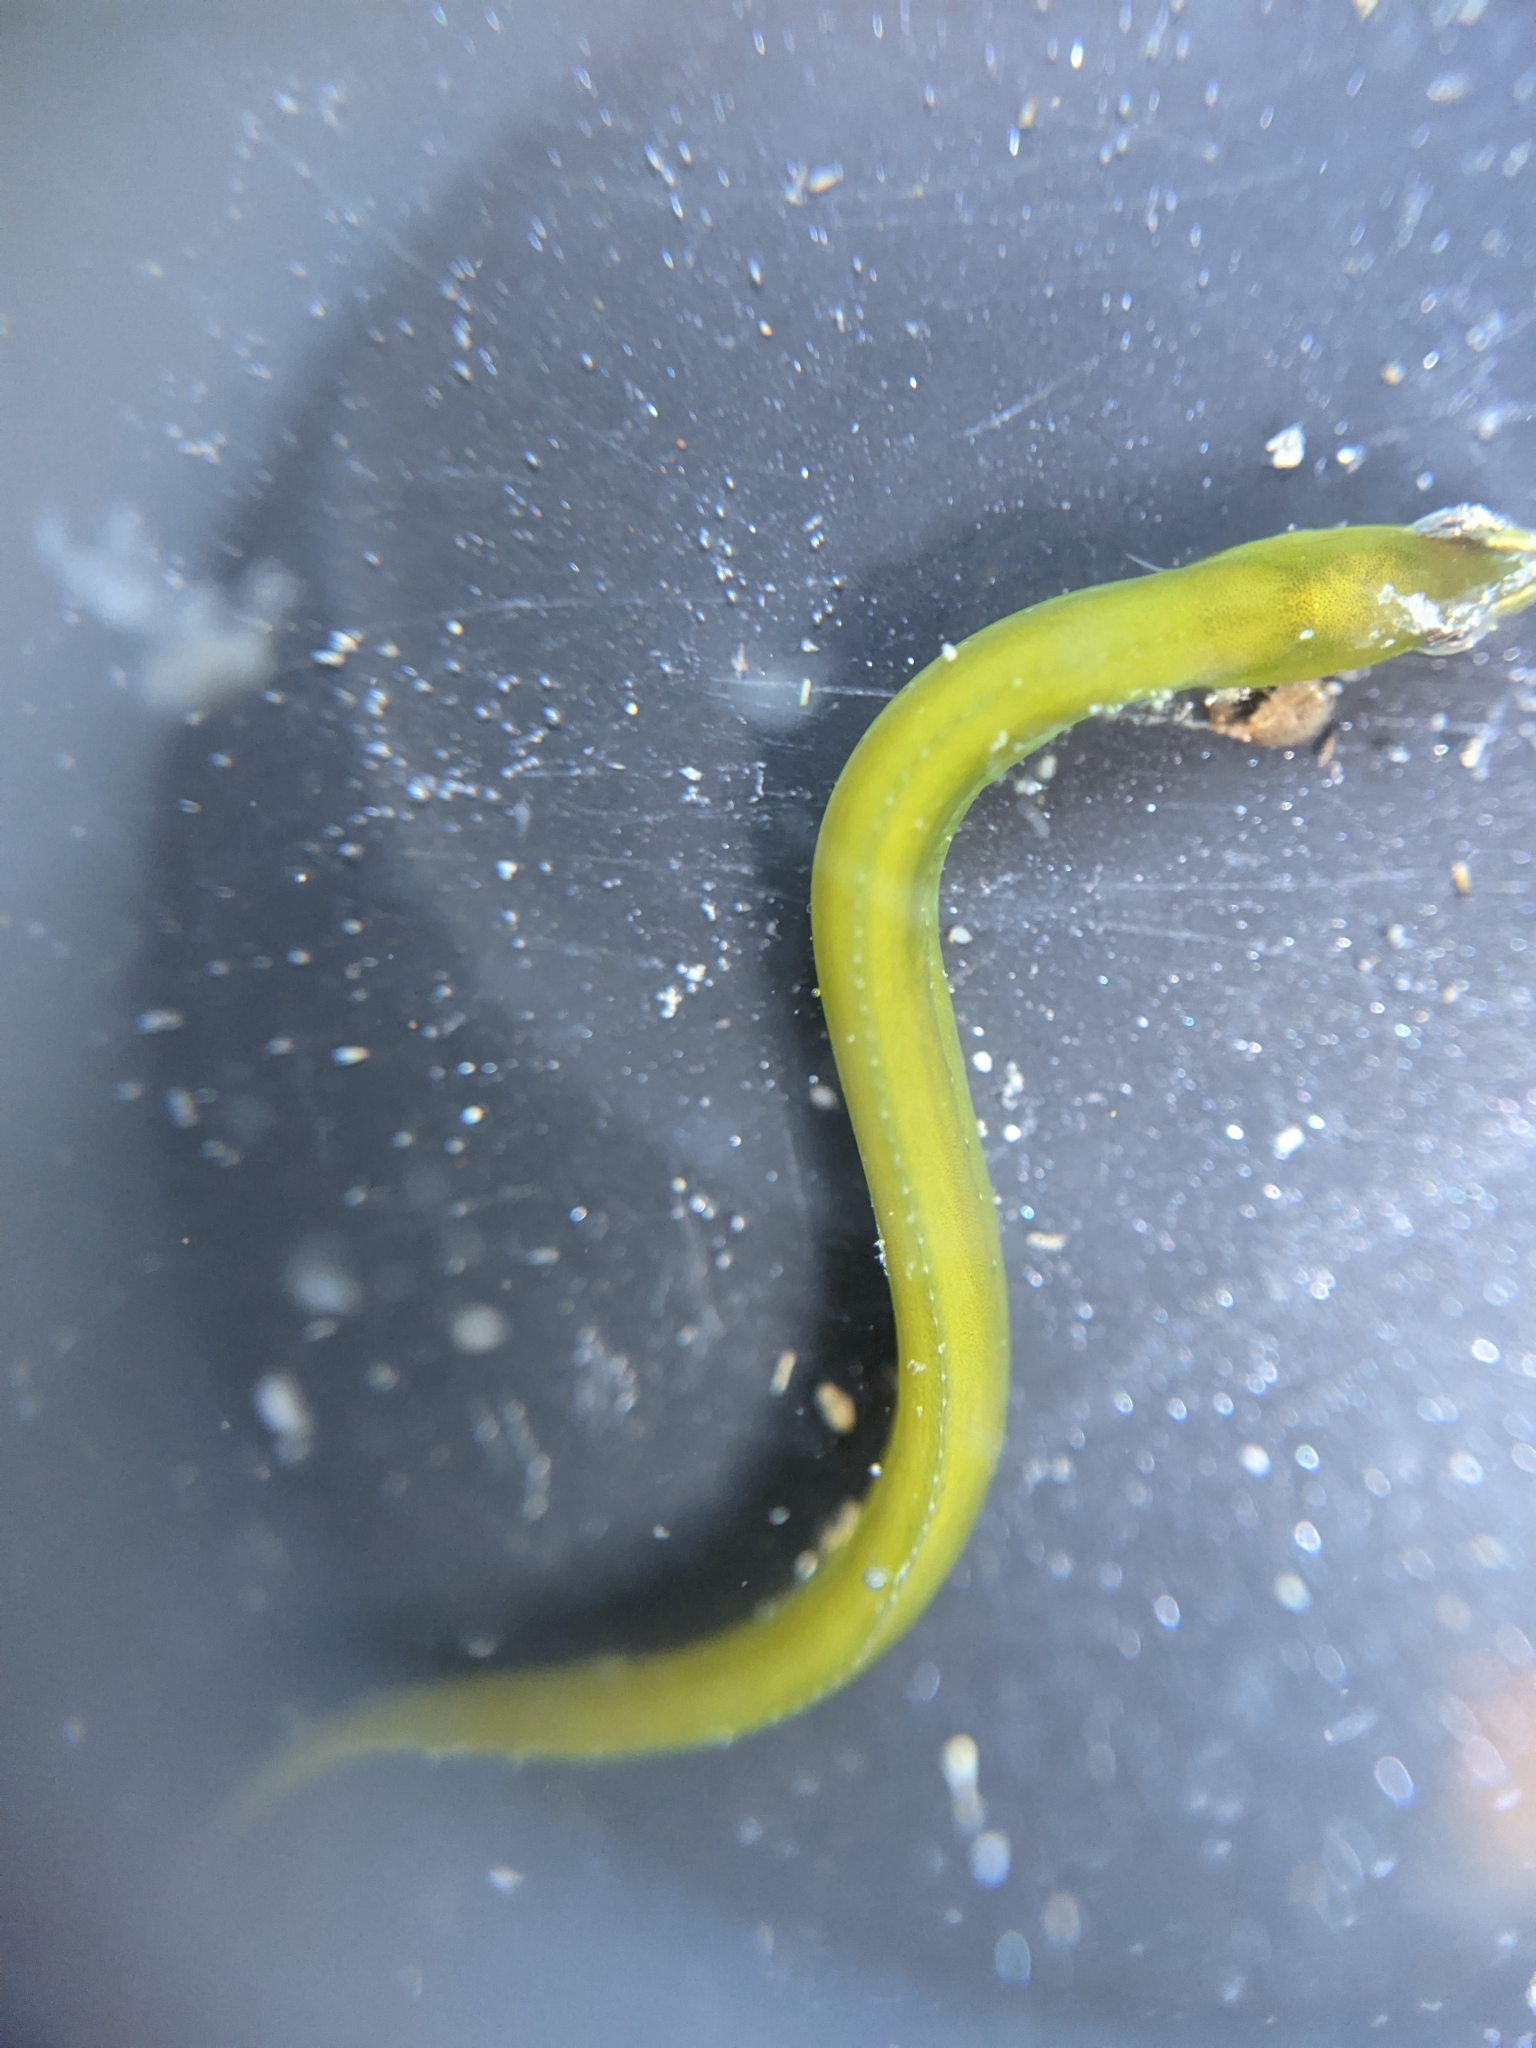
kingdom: Animalia
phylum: Chordata
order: Perciformes
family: Pholidae
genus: Apodichthys
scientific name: Apodichthys flavidus
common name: Penpoint gunnel
